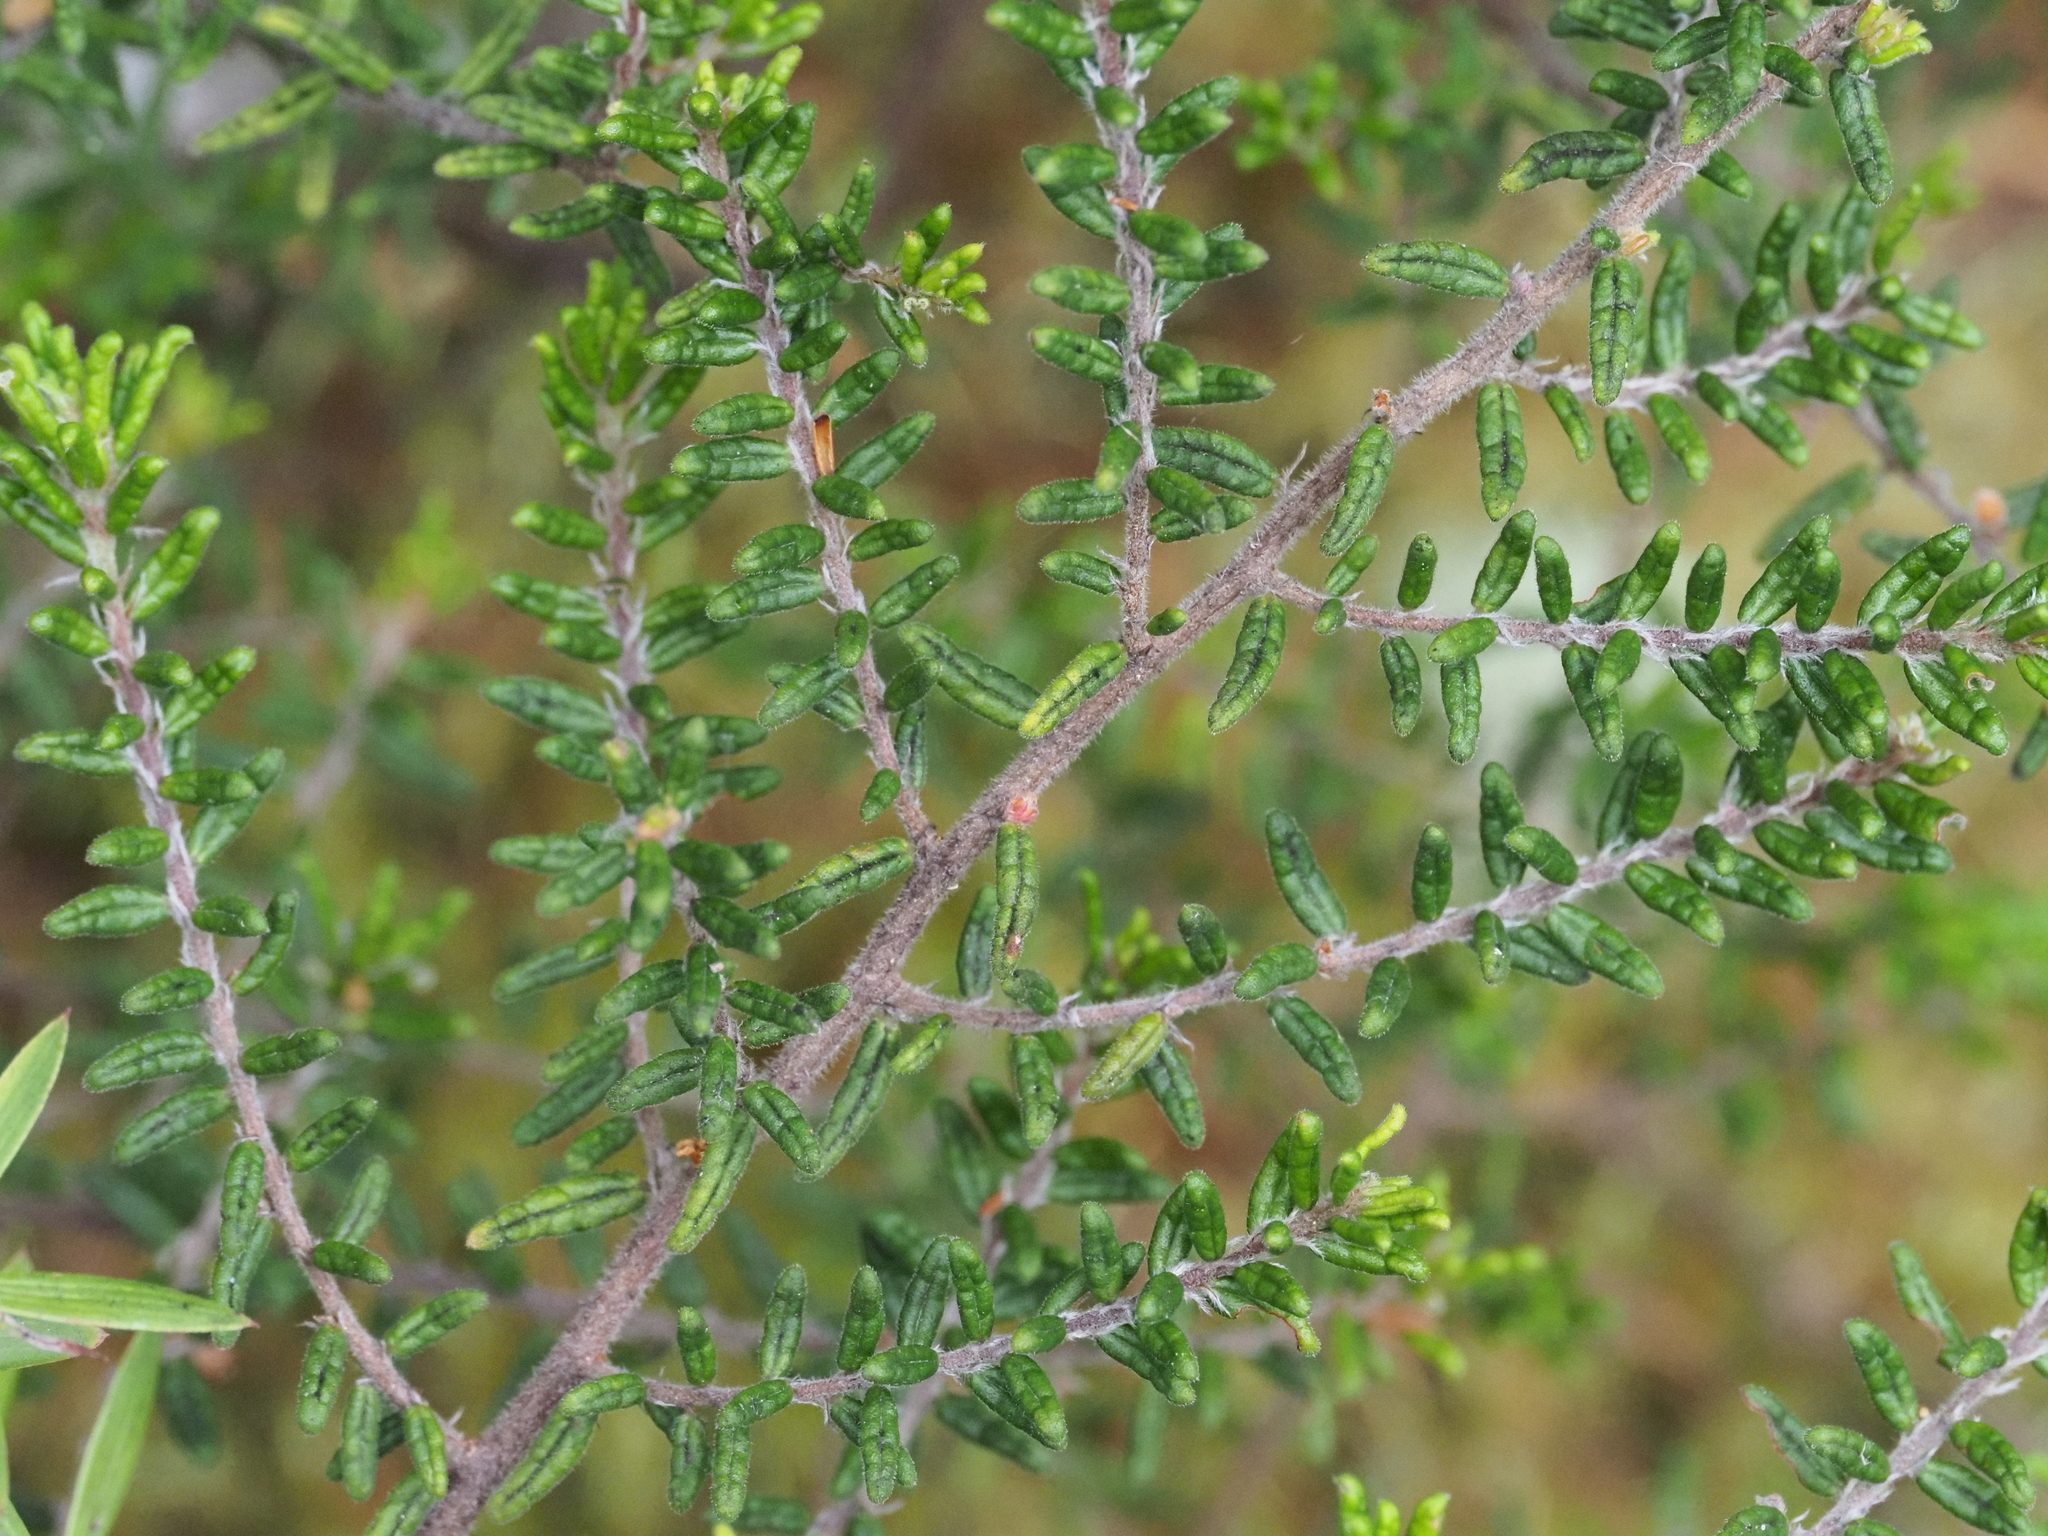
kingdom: Plantae
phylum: Tracheophyta
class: Magnoliopsida
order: Rosales
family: Rhamnaceae
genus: Pomaderris
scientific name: Pomaderris amoena
